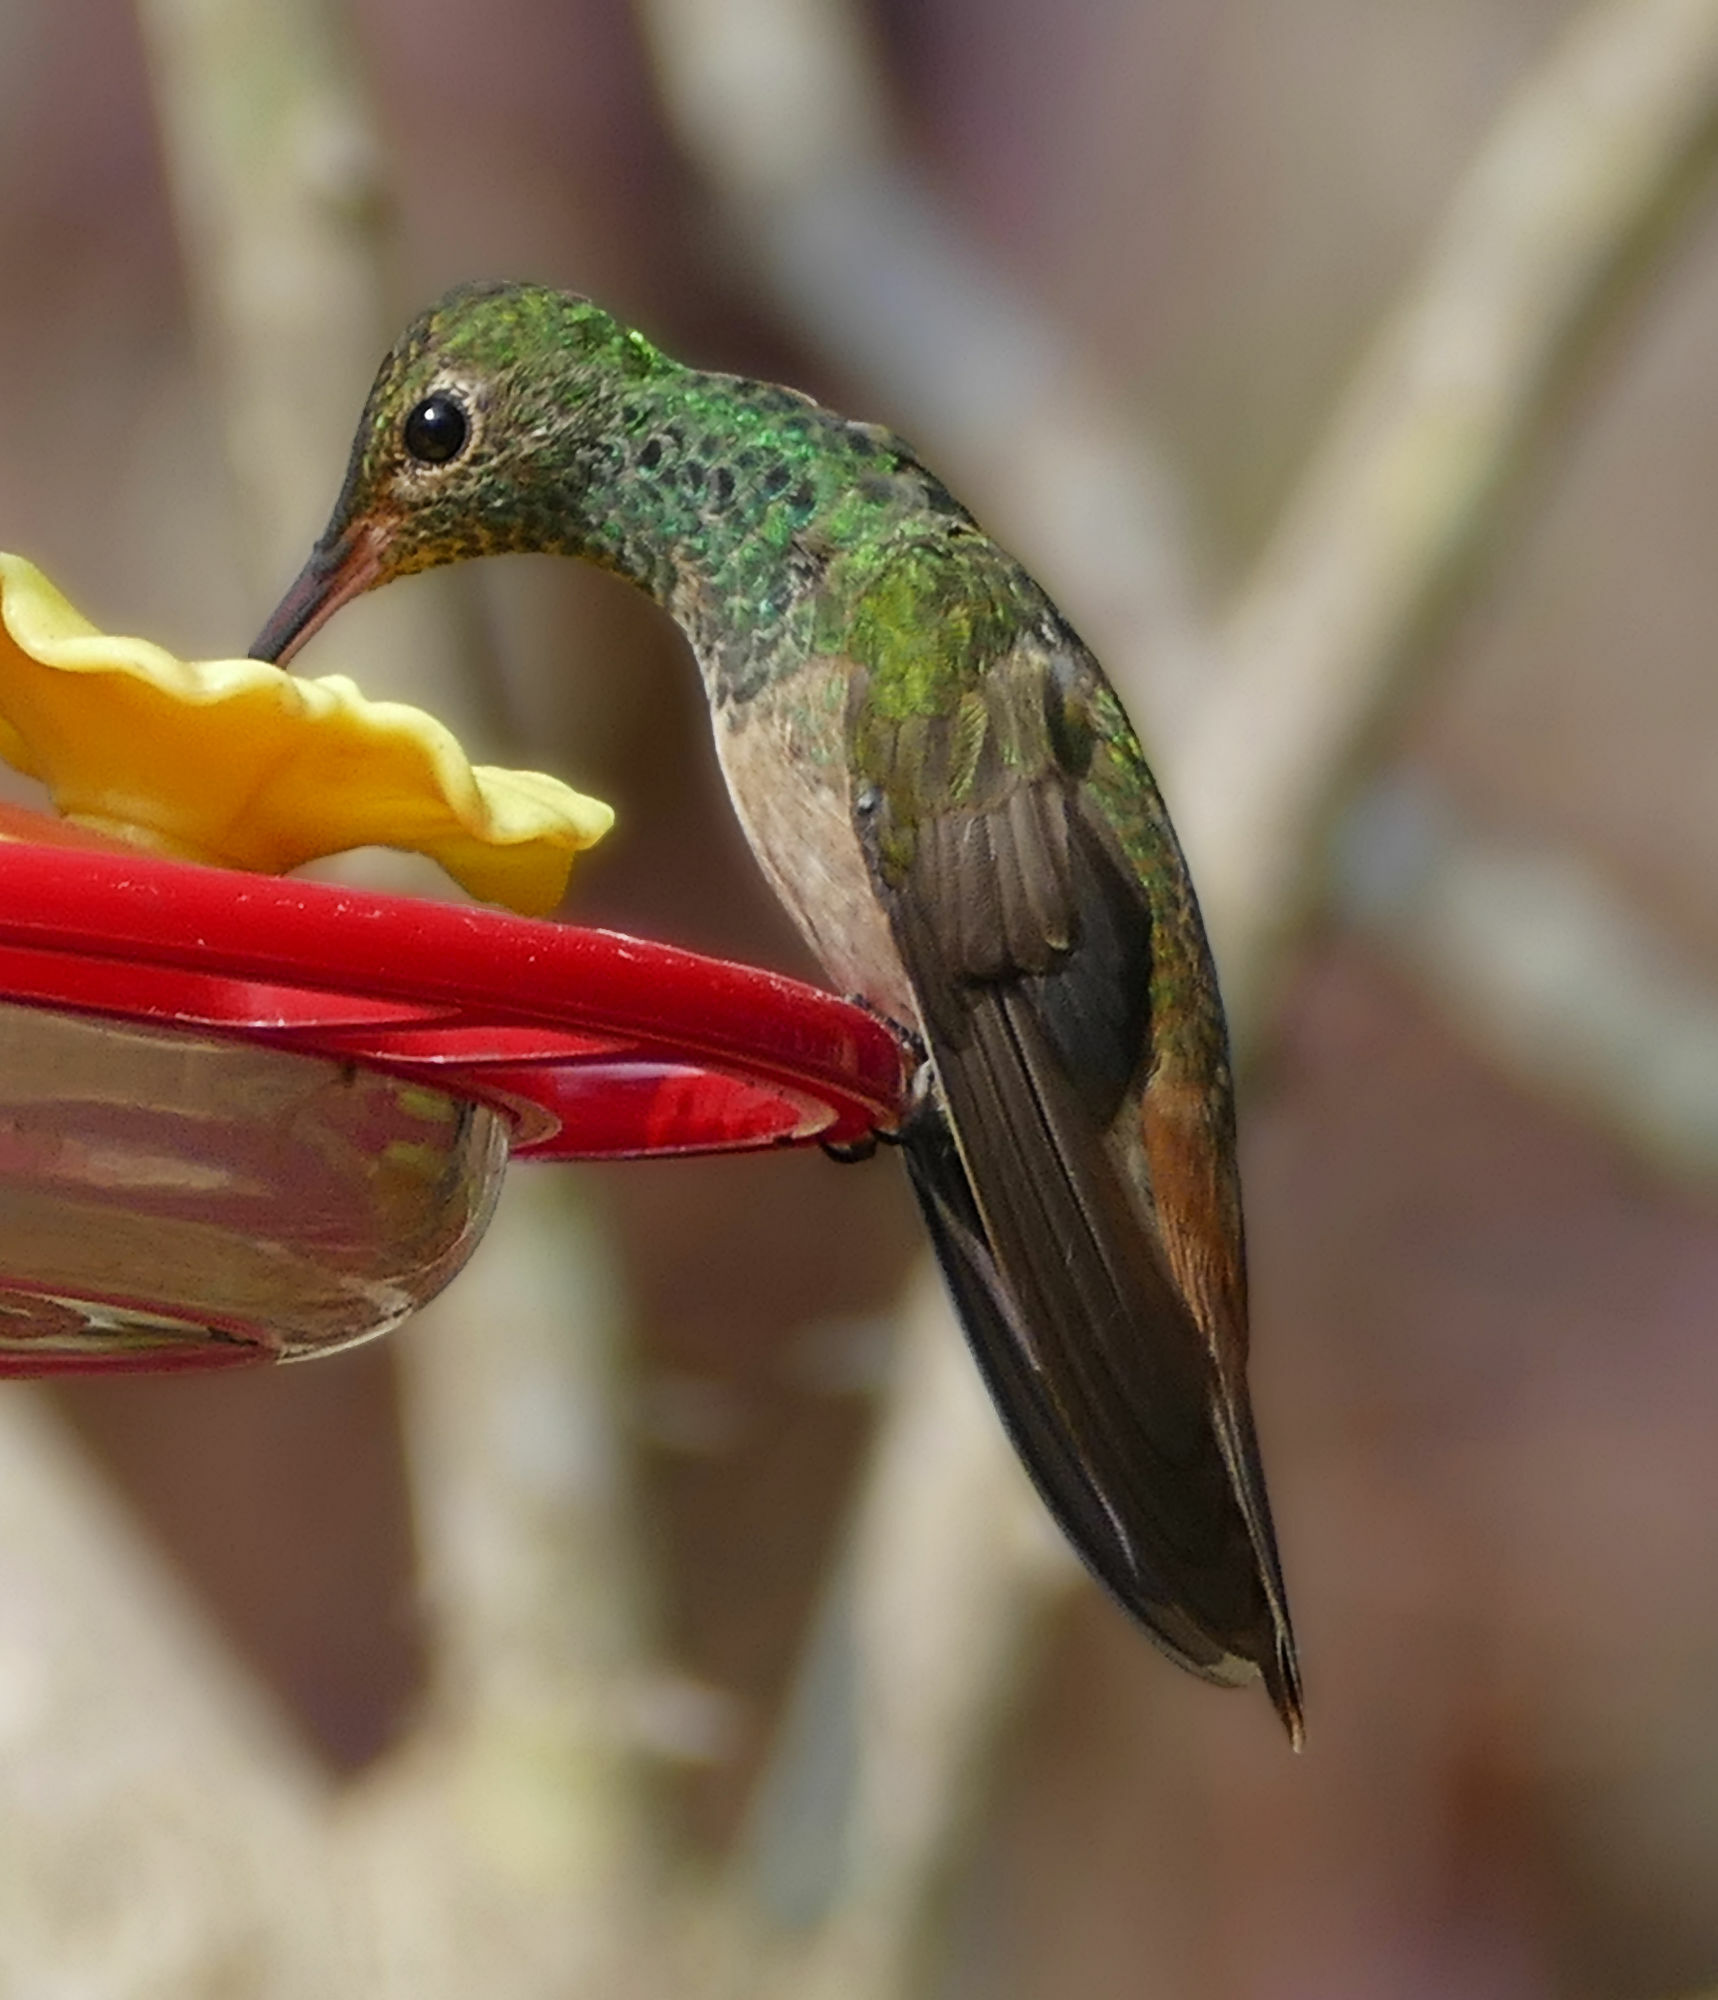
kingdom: Animalia
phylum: Chordata
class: Aves
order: Apodiformes
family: Trochilidae
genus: Amazilia
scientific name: Amazilia yucatanensis
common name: Buff-bellied hummingbird
